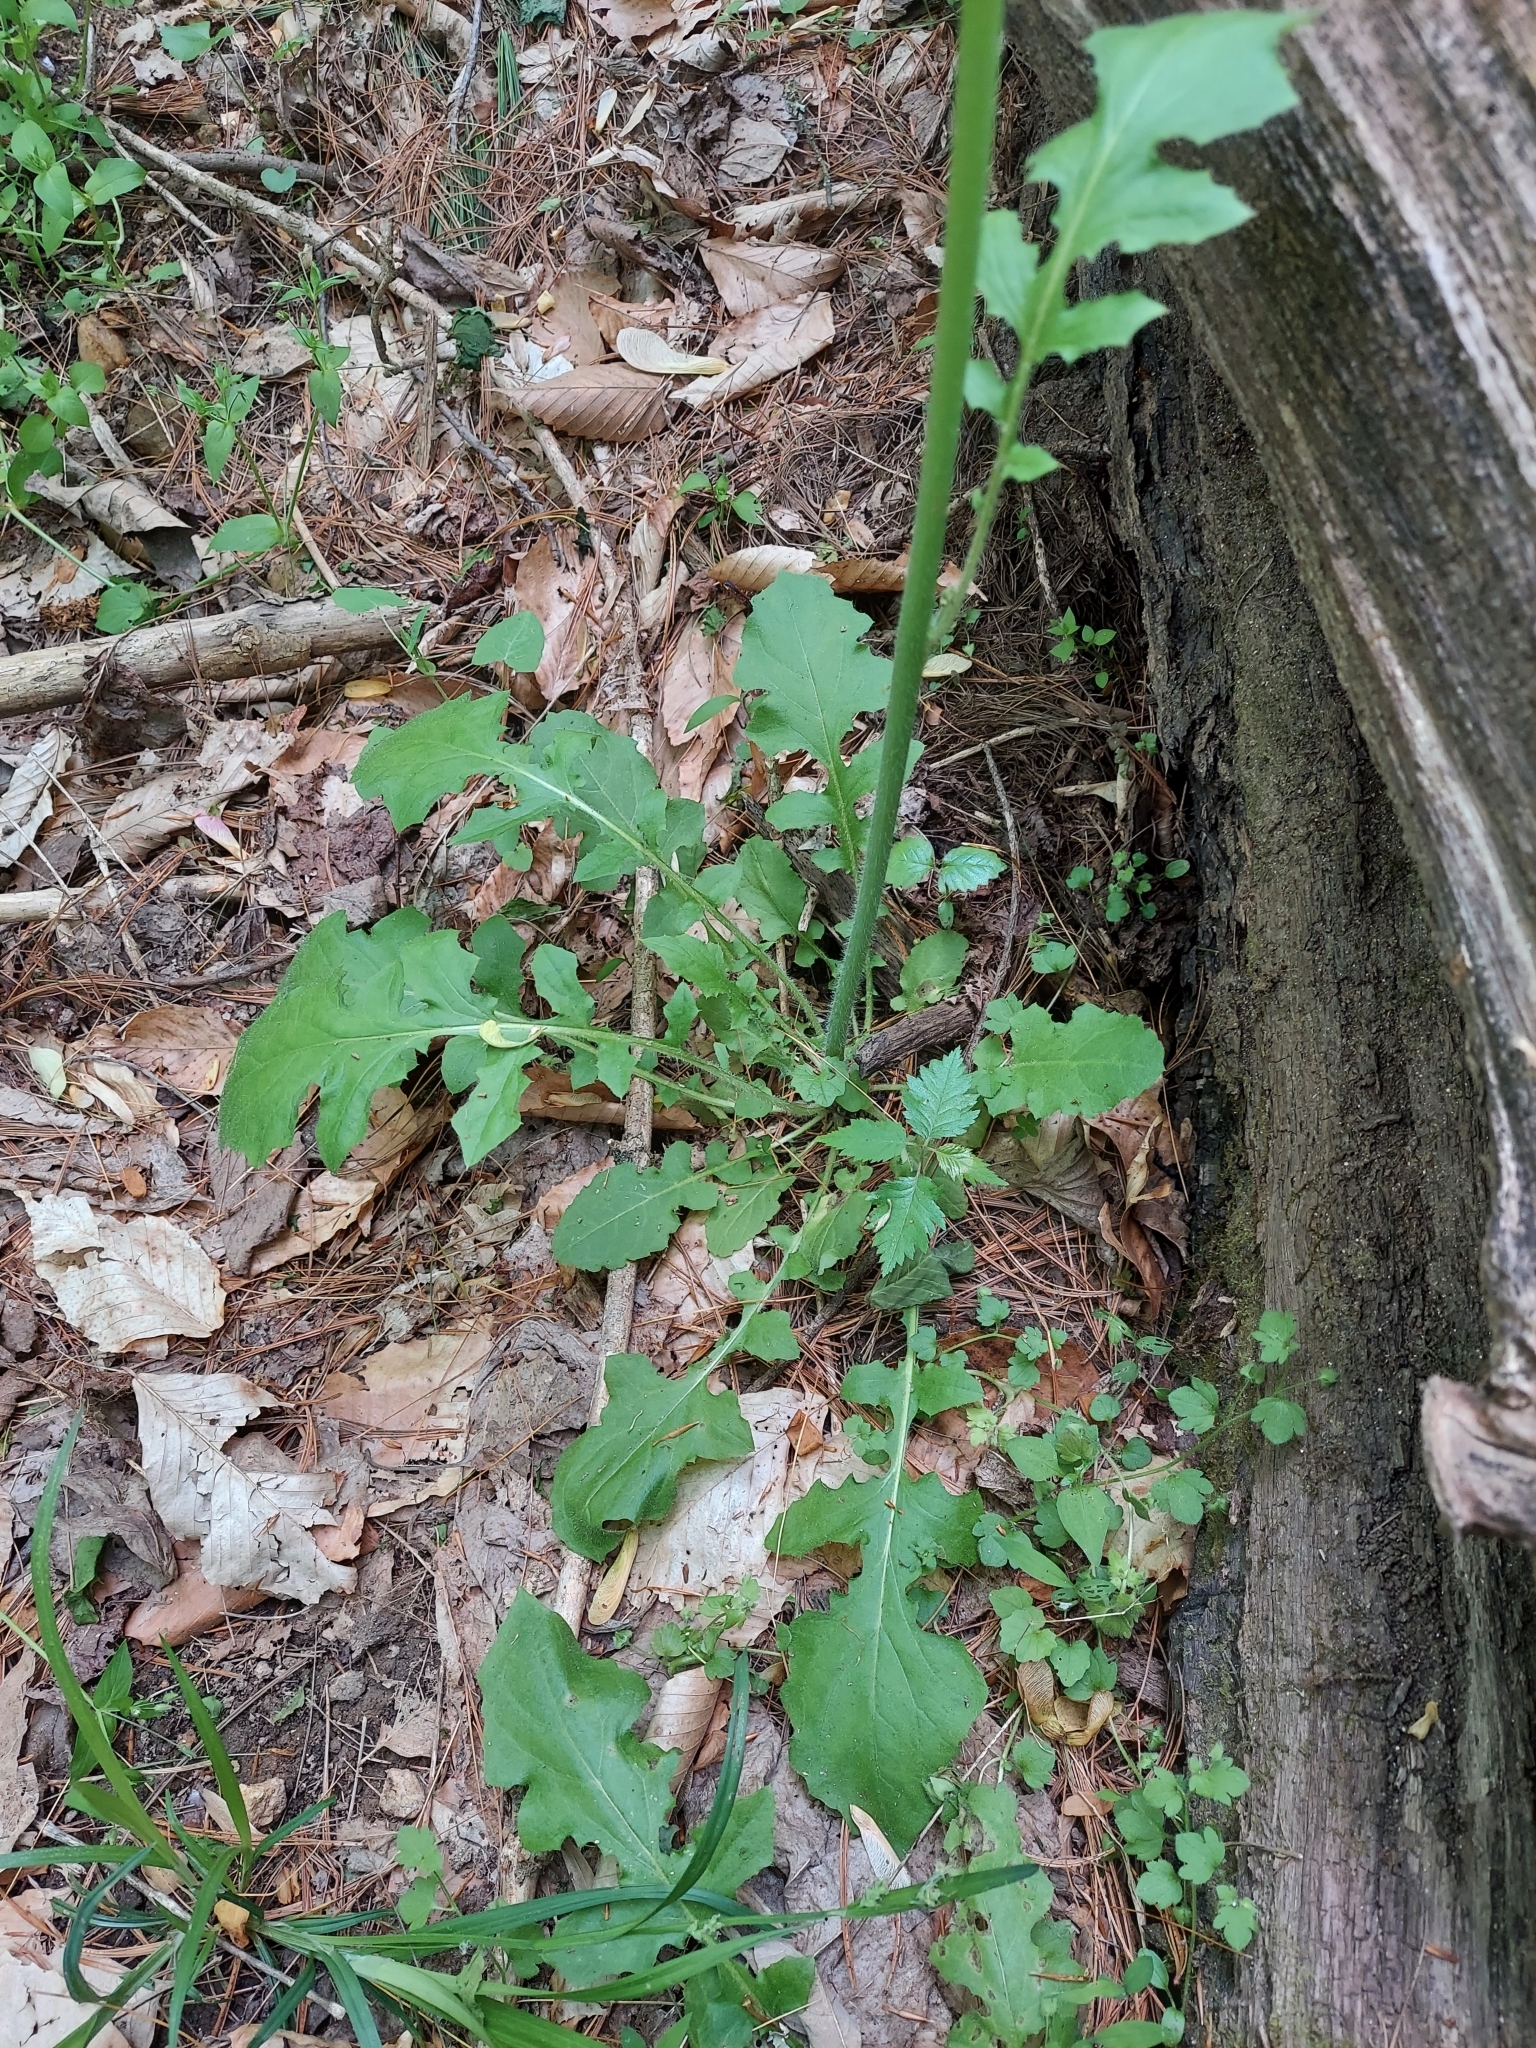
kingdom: Plantae
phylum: Tracheophyta
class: Magnoliopsida
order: Asterales
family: Asteraceae
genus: Youngia
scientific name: Youngia japonica
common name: Oriental false hawksbeard
